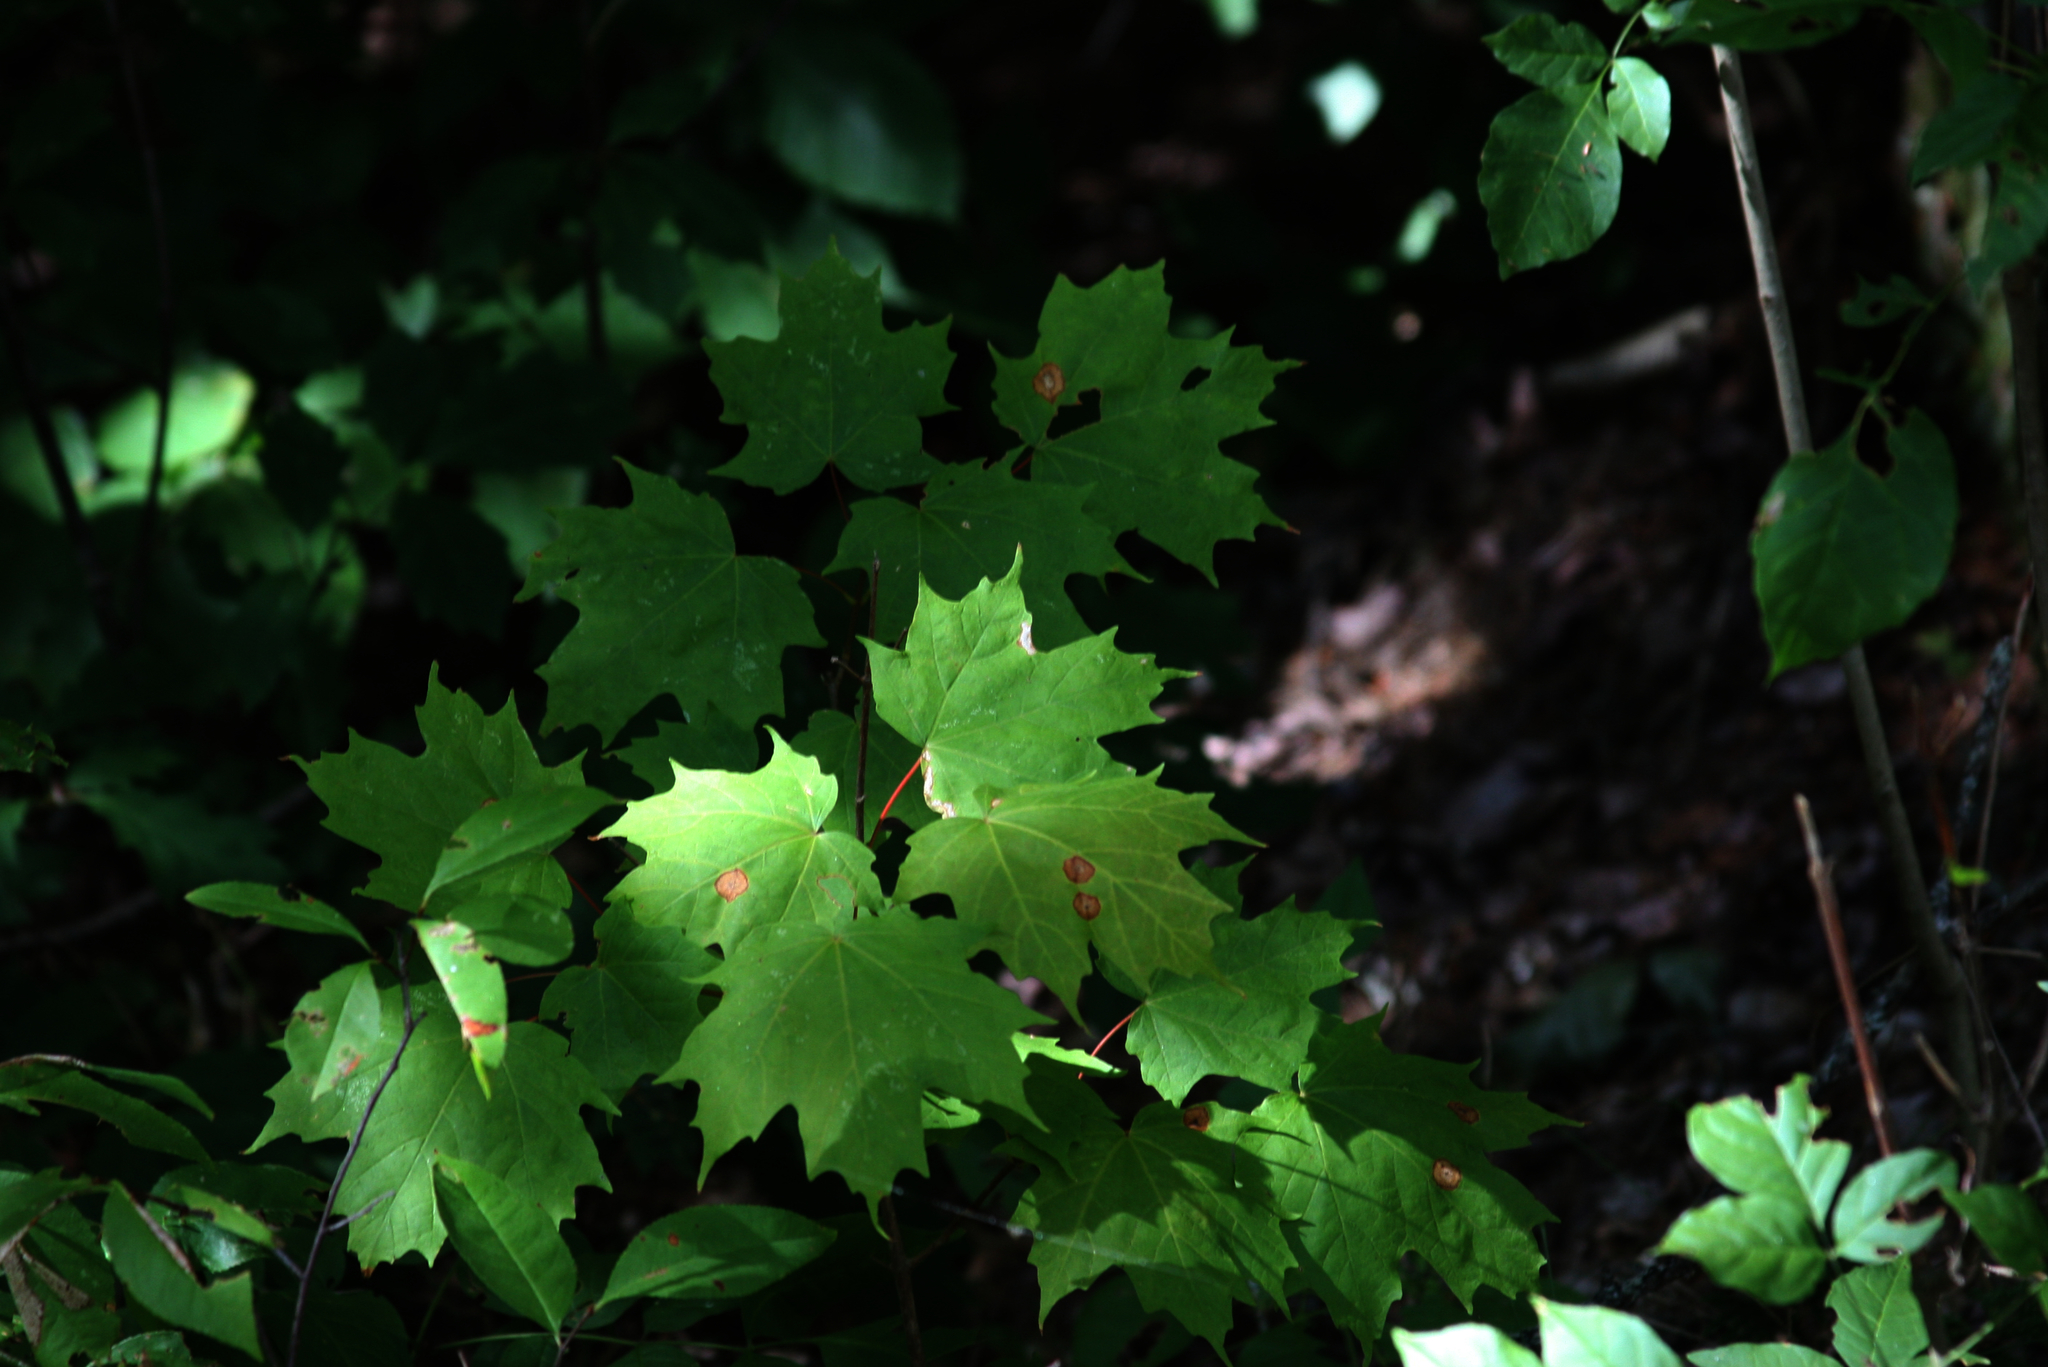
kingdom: Plantae
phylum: Tracheophyta
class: Magnoliopsida
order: Sapindales
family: Sapindaceae
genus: Acer
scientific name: Acer saccharum
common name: Sugar maple
